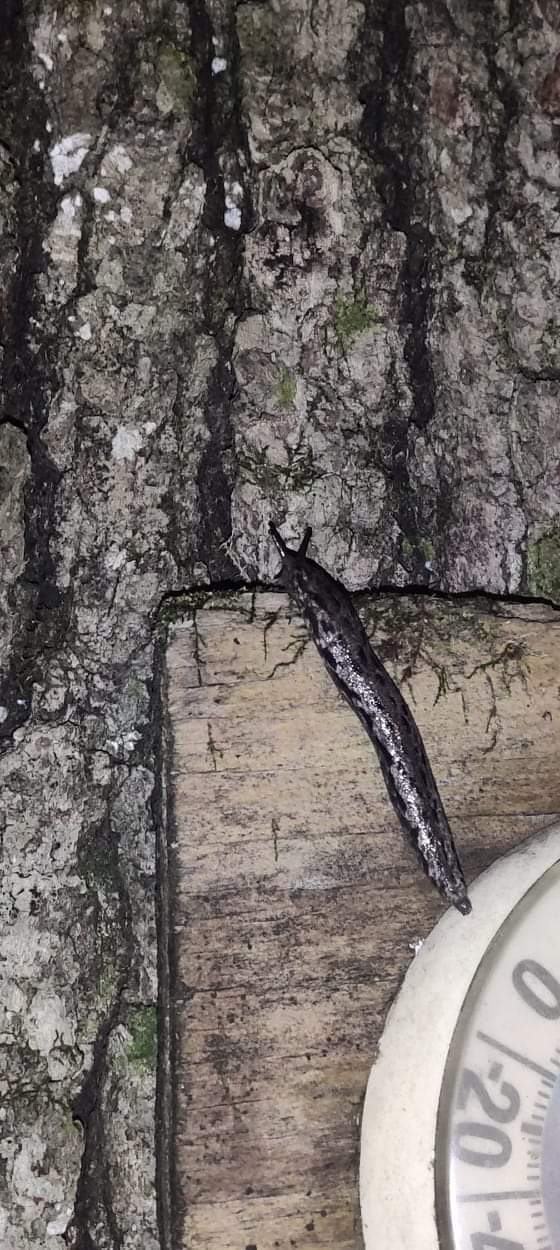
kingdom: Animalia
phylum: Mollusca
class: Gastropoda
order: Stylommatophora
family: Philomycidae
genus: Megapallifera
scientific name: Megapallifera mutabilis
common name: Changeable mantleslug
